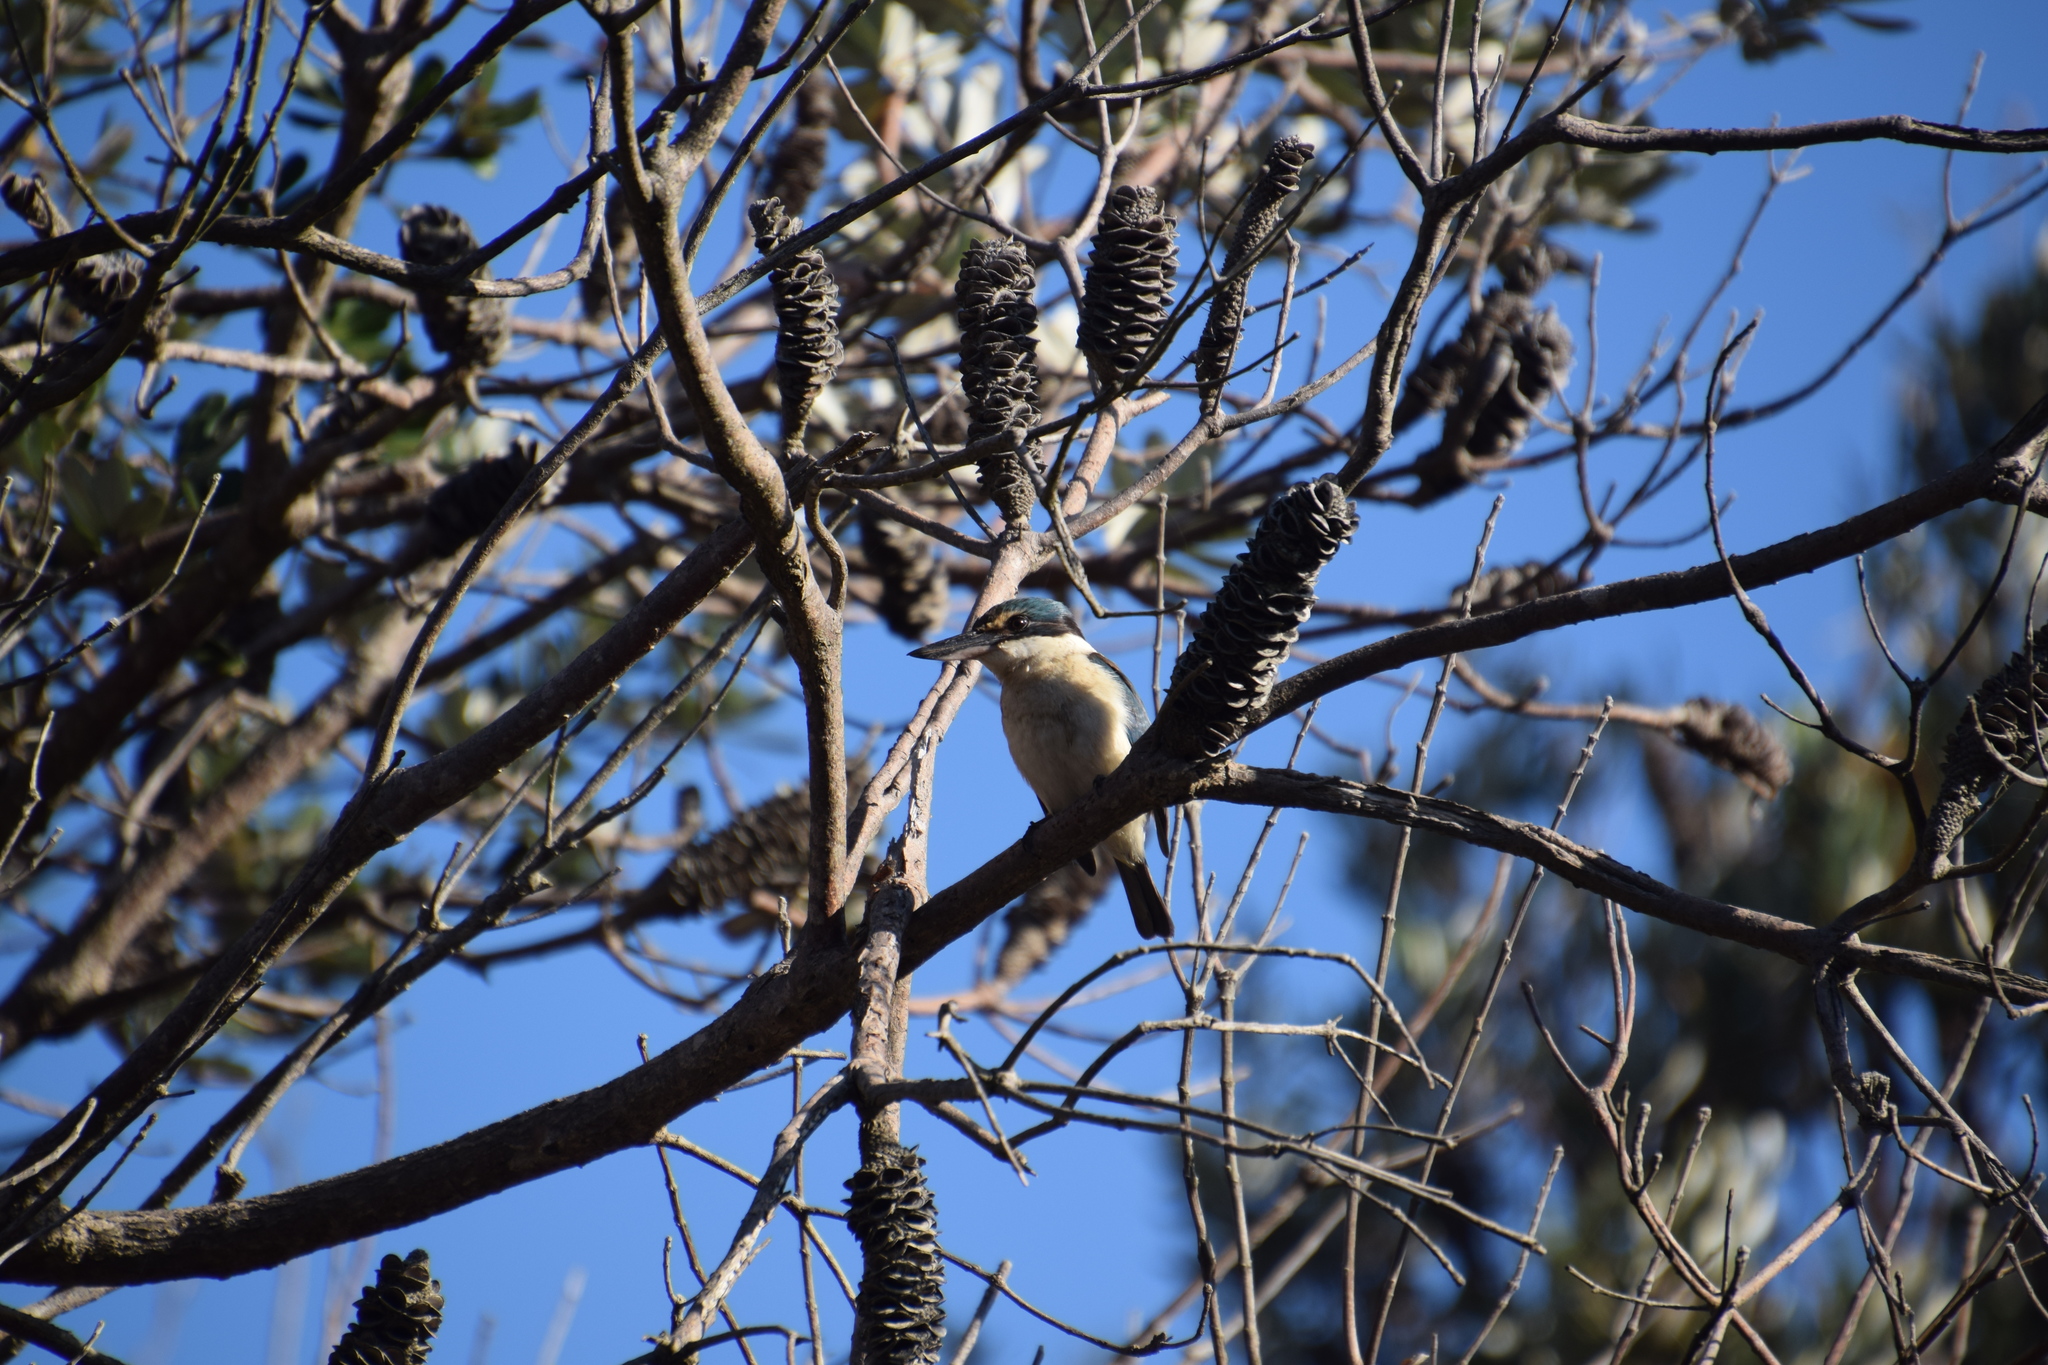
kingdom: Animalia
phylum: Chordata
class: Aves
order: Coraciiformes
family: Alcedinidae
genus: Todiramphus
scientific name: Todiramphus sanctus
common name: Sacred kingfisher
